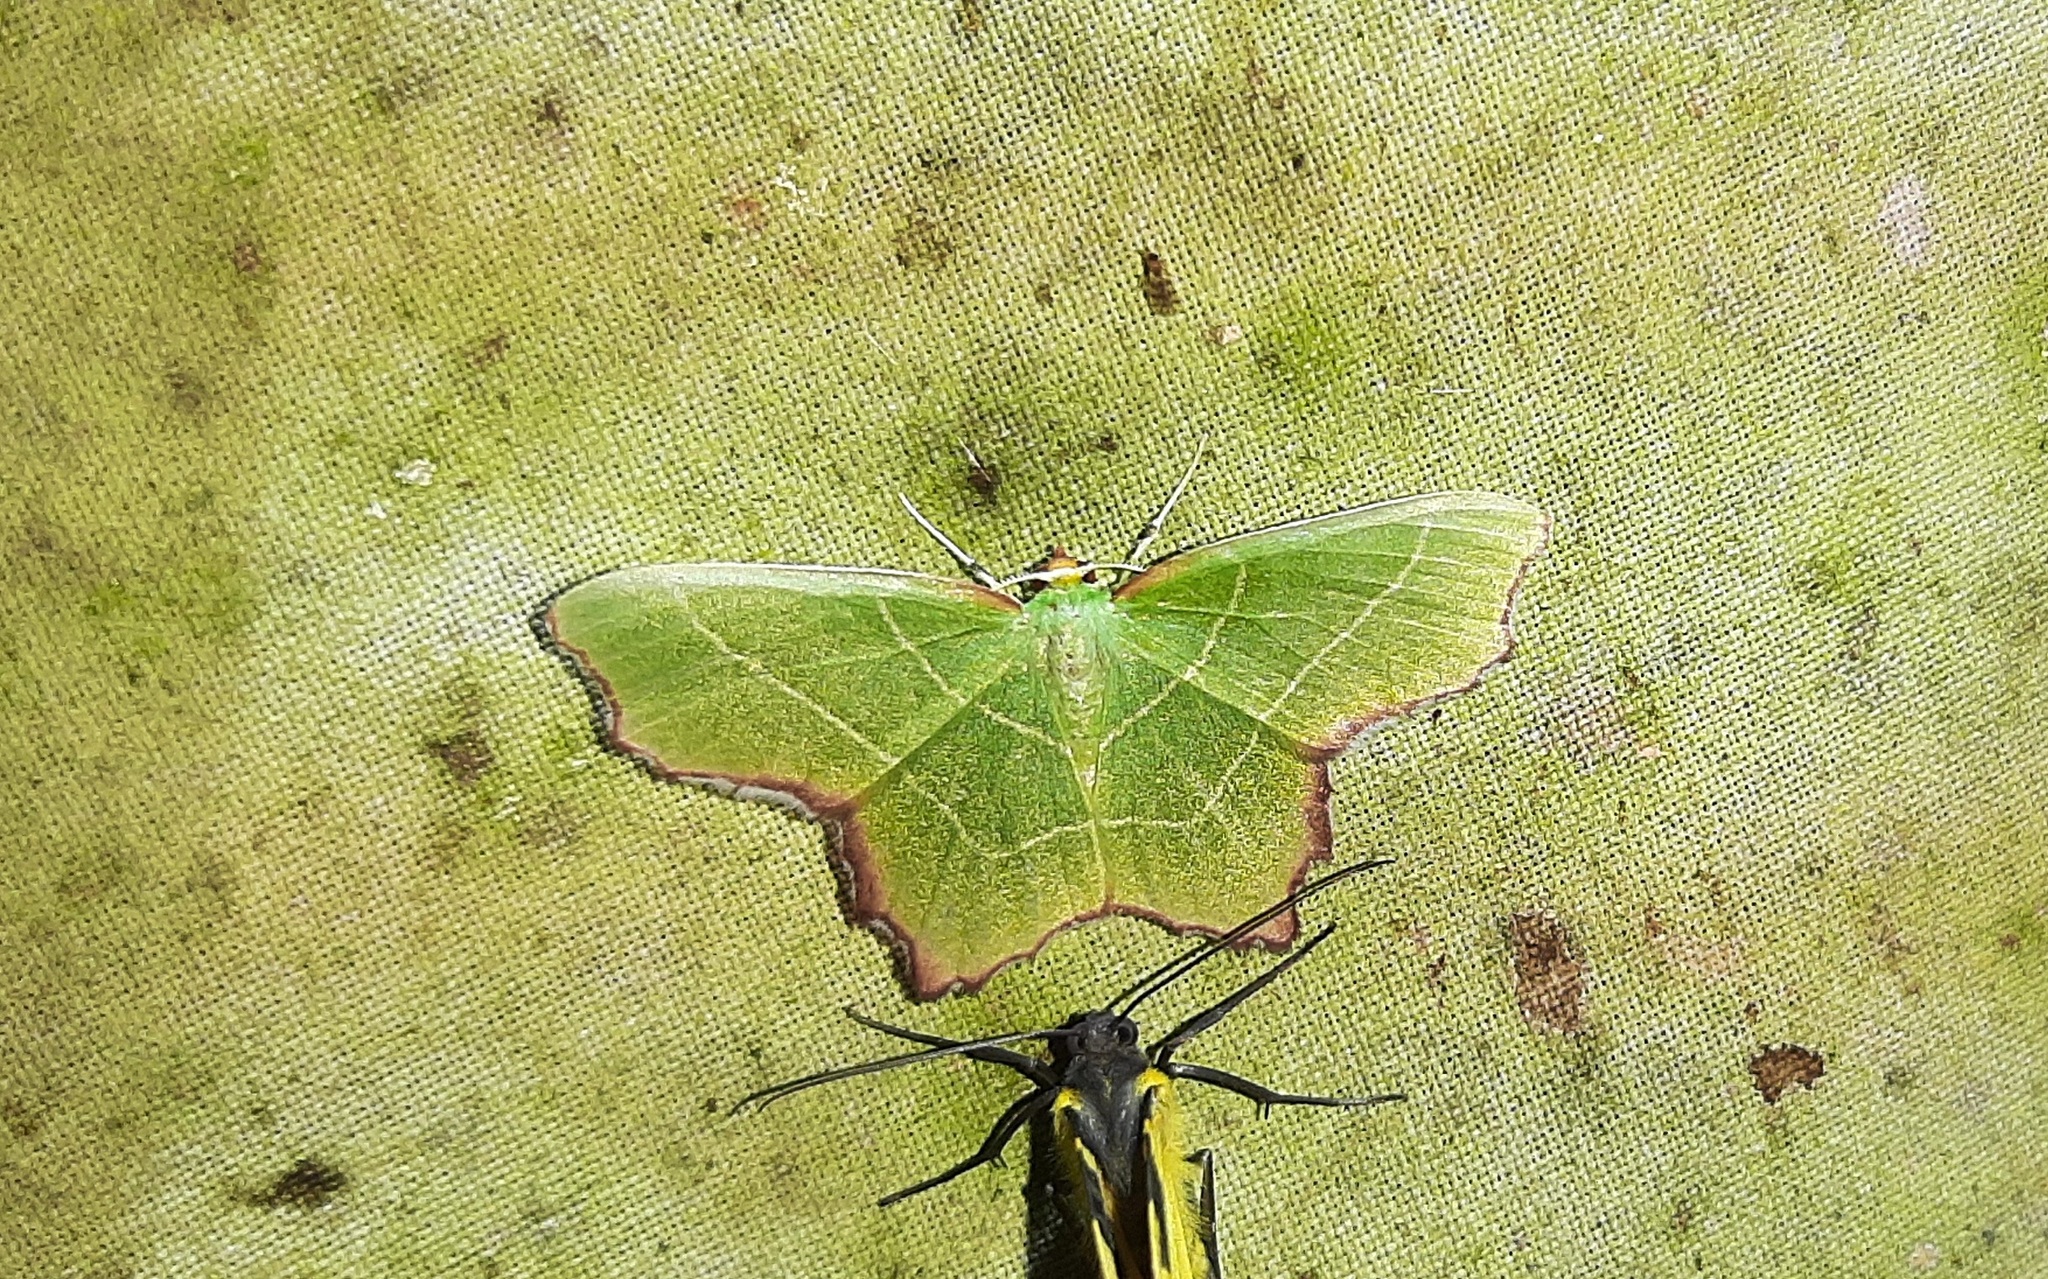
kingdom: Animalia
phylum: Arthropoda
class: Insecta
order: Lepidoptera
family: Geometridae
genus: Poecilochlora
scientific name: Poecilochlora minor
